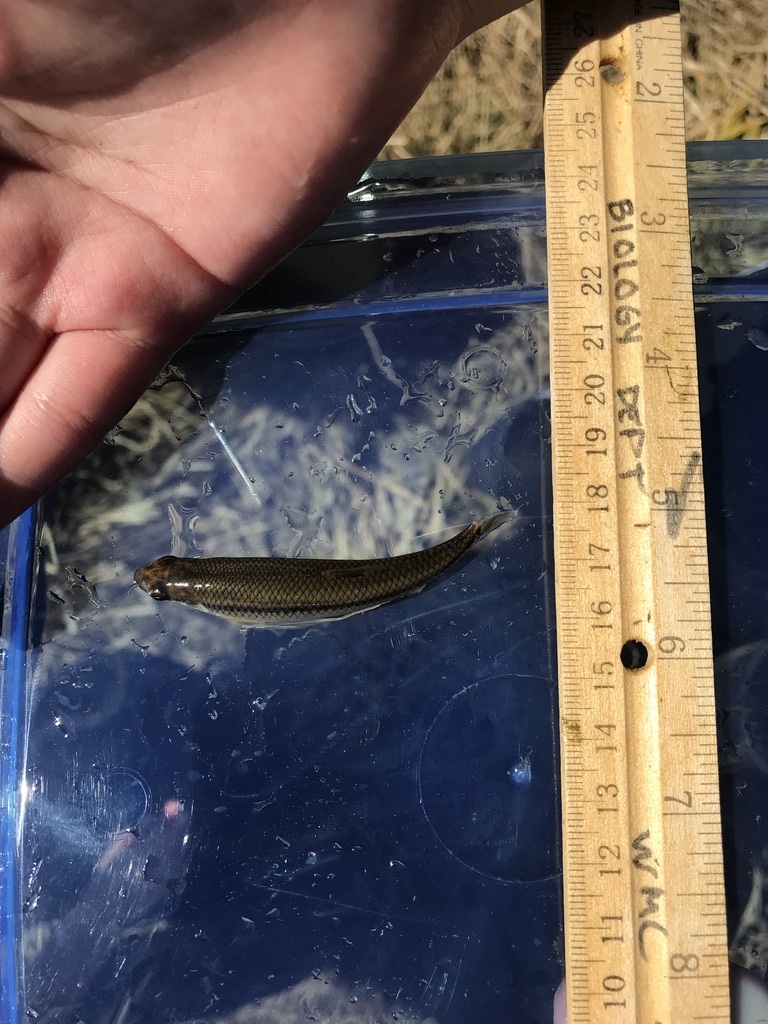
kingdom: Animalia
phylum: Chordata
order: Cypriniformes
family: Cyprinidae
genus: Pimephales
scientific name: Pimephales notatus
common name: Bluntnose minnow
